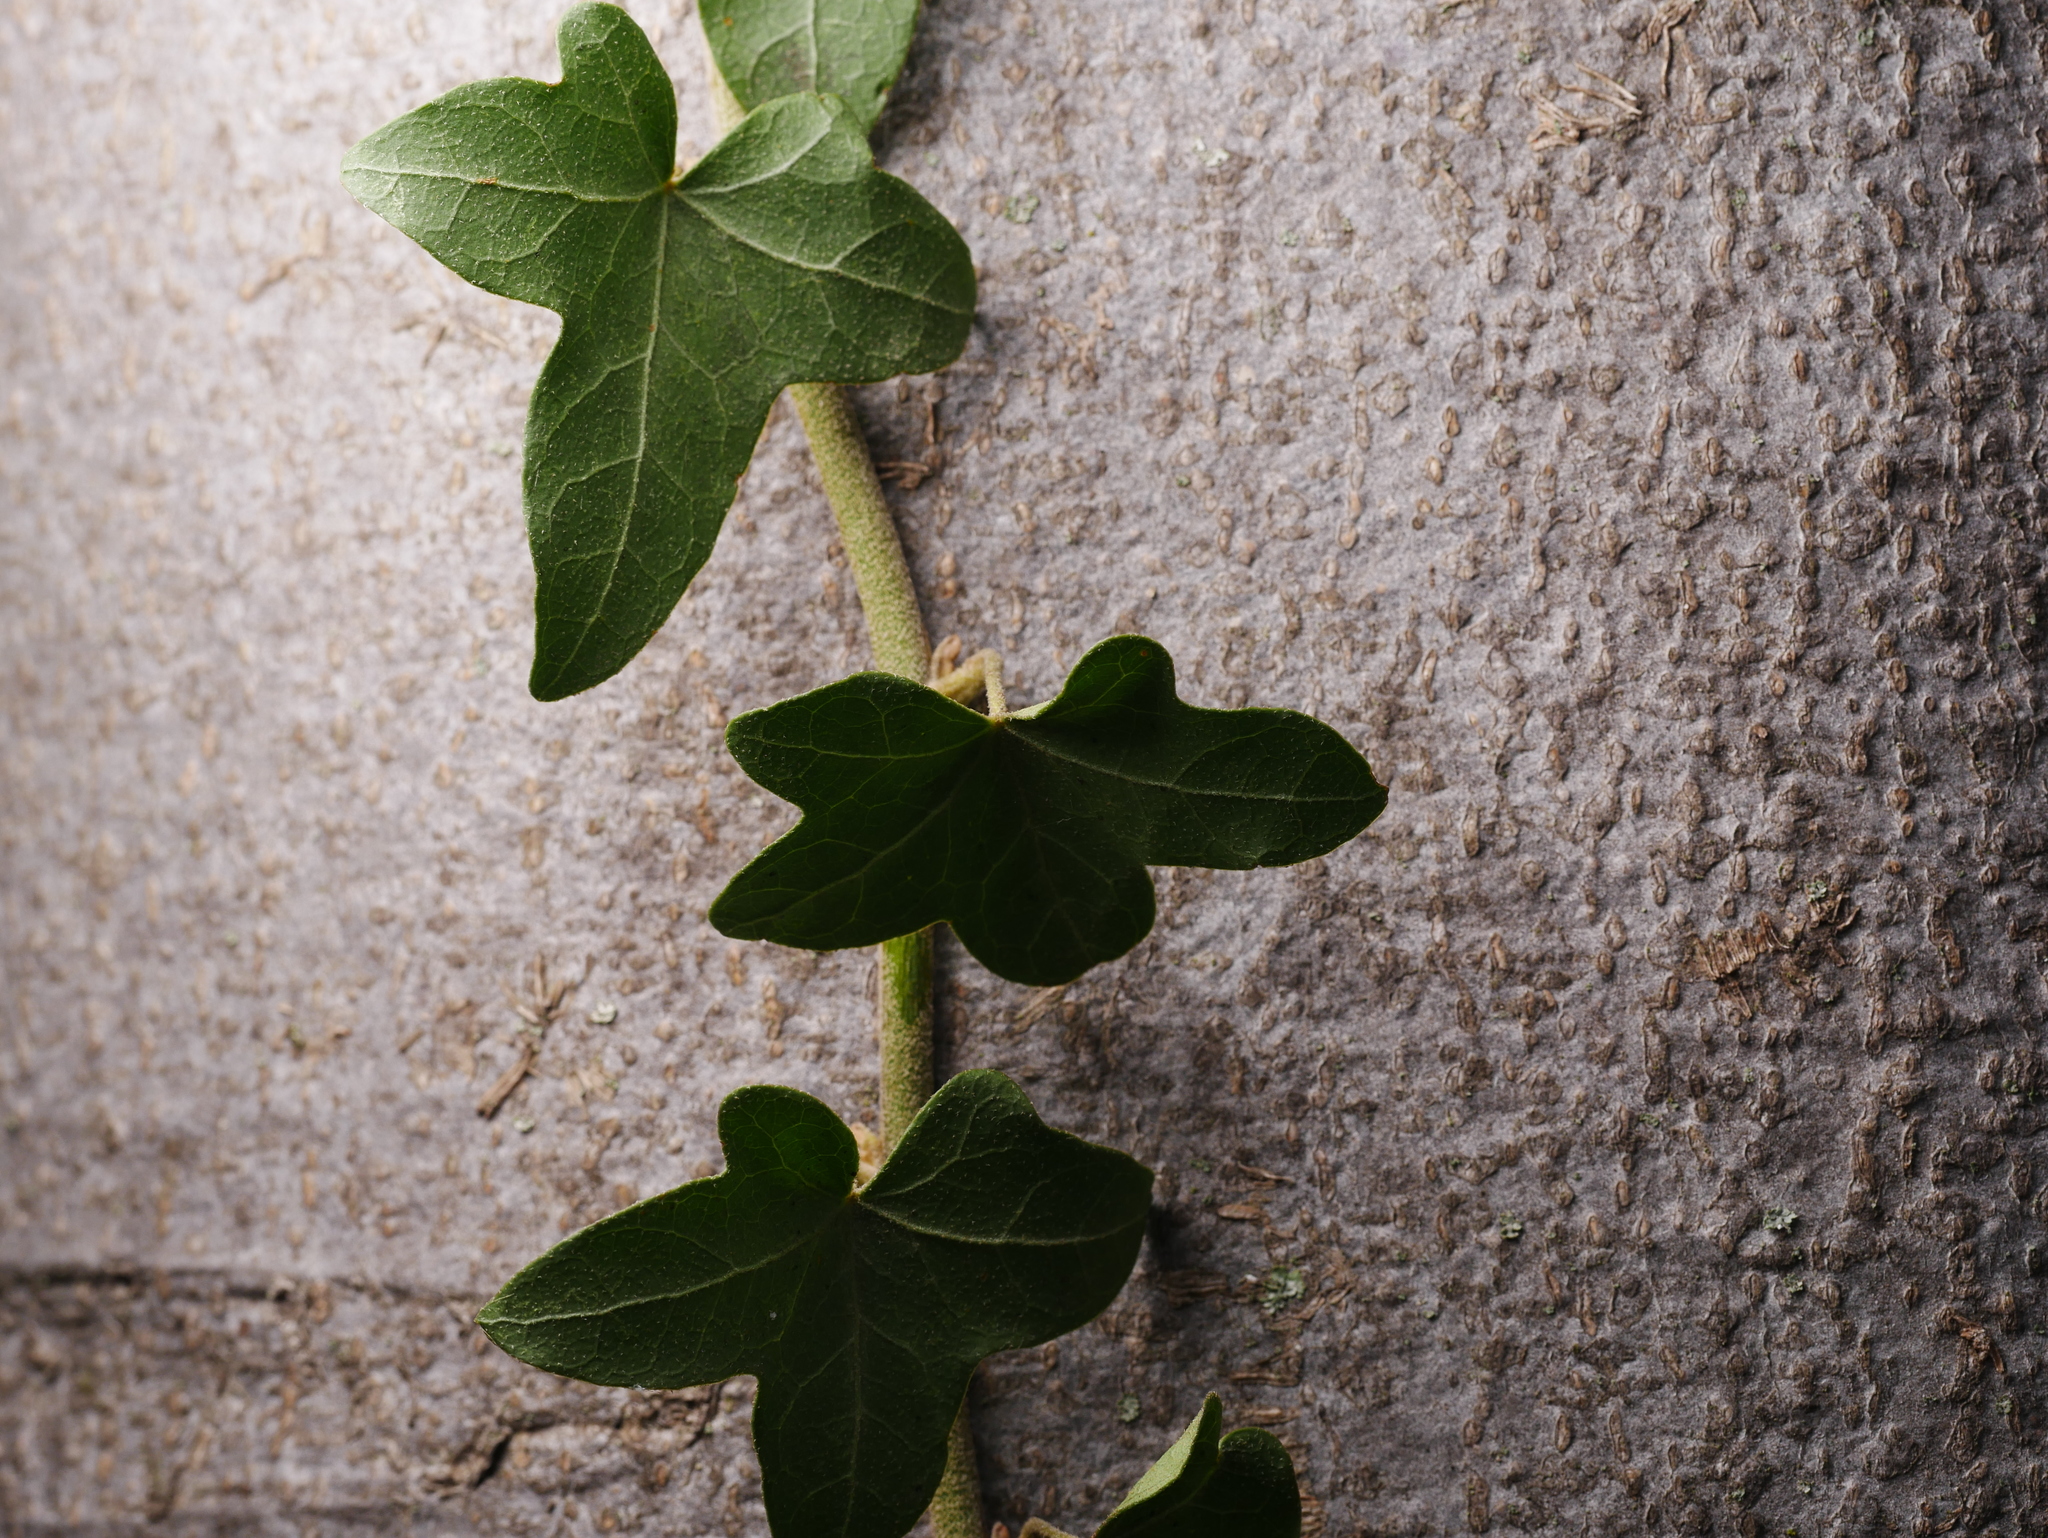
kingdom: Plantae
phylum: Tracheophyta
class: Magnoliopsida
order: Apiales
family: Araliaceae
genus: Hedera
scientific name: Hedera helix
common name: Ivy
